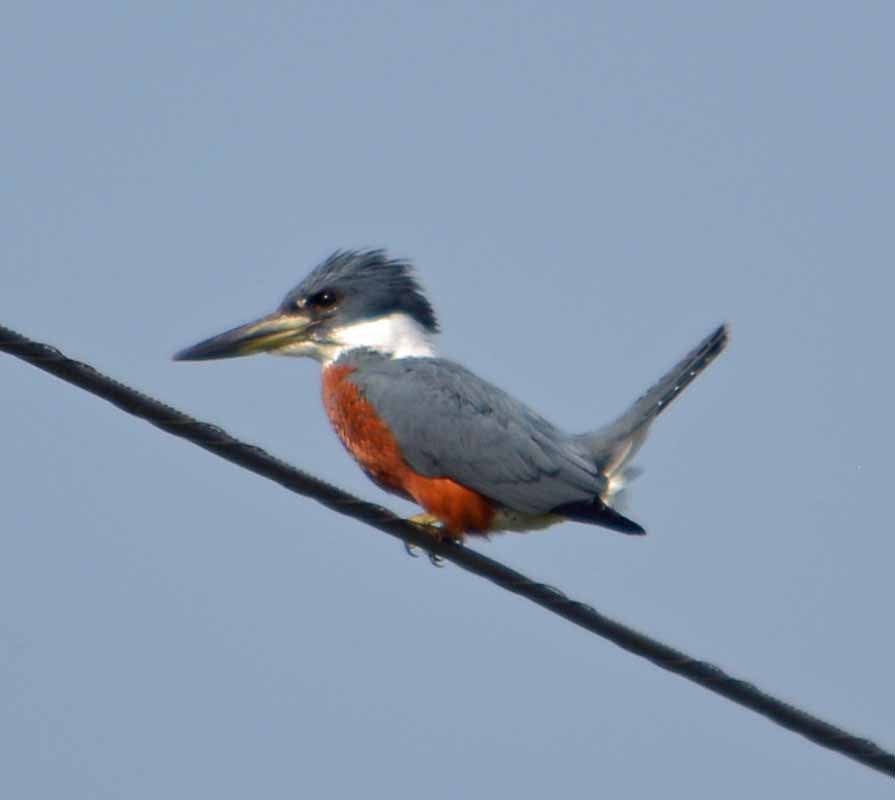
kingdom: Animalia
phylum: Chordata
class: Aves
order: Coraciiformes
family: Alcedinidae
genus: Megaceryle
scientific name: Megaceryle torquata
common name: Ringed kingfisher
